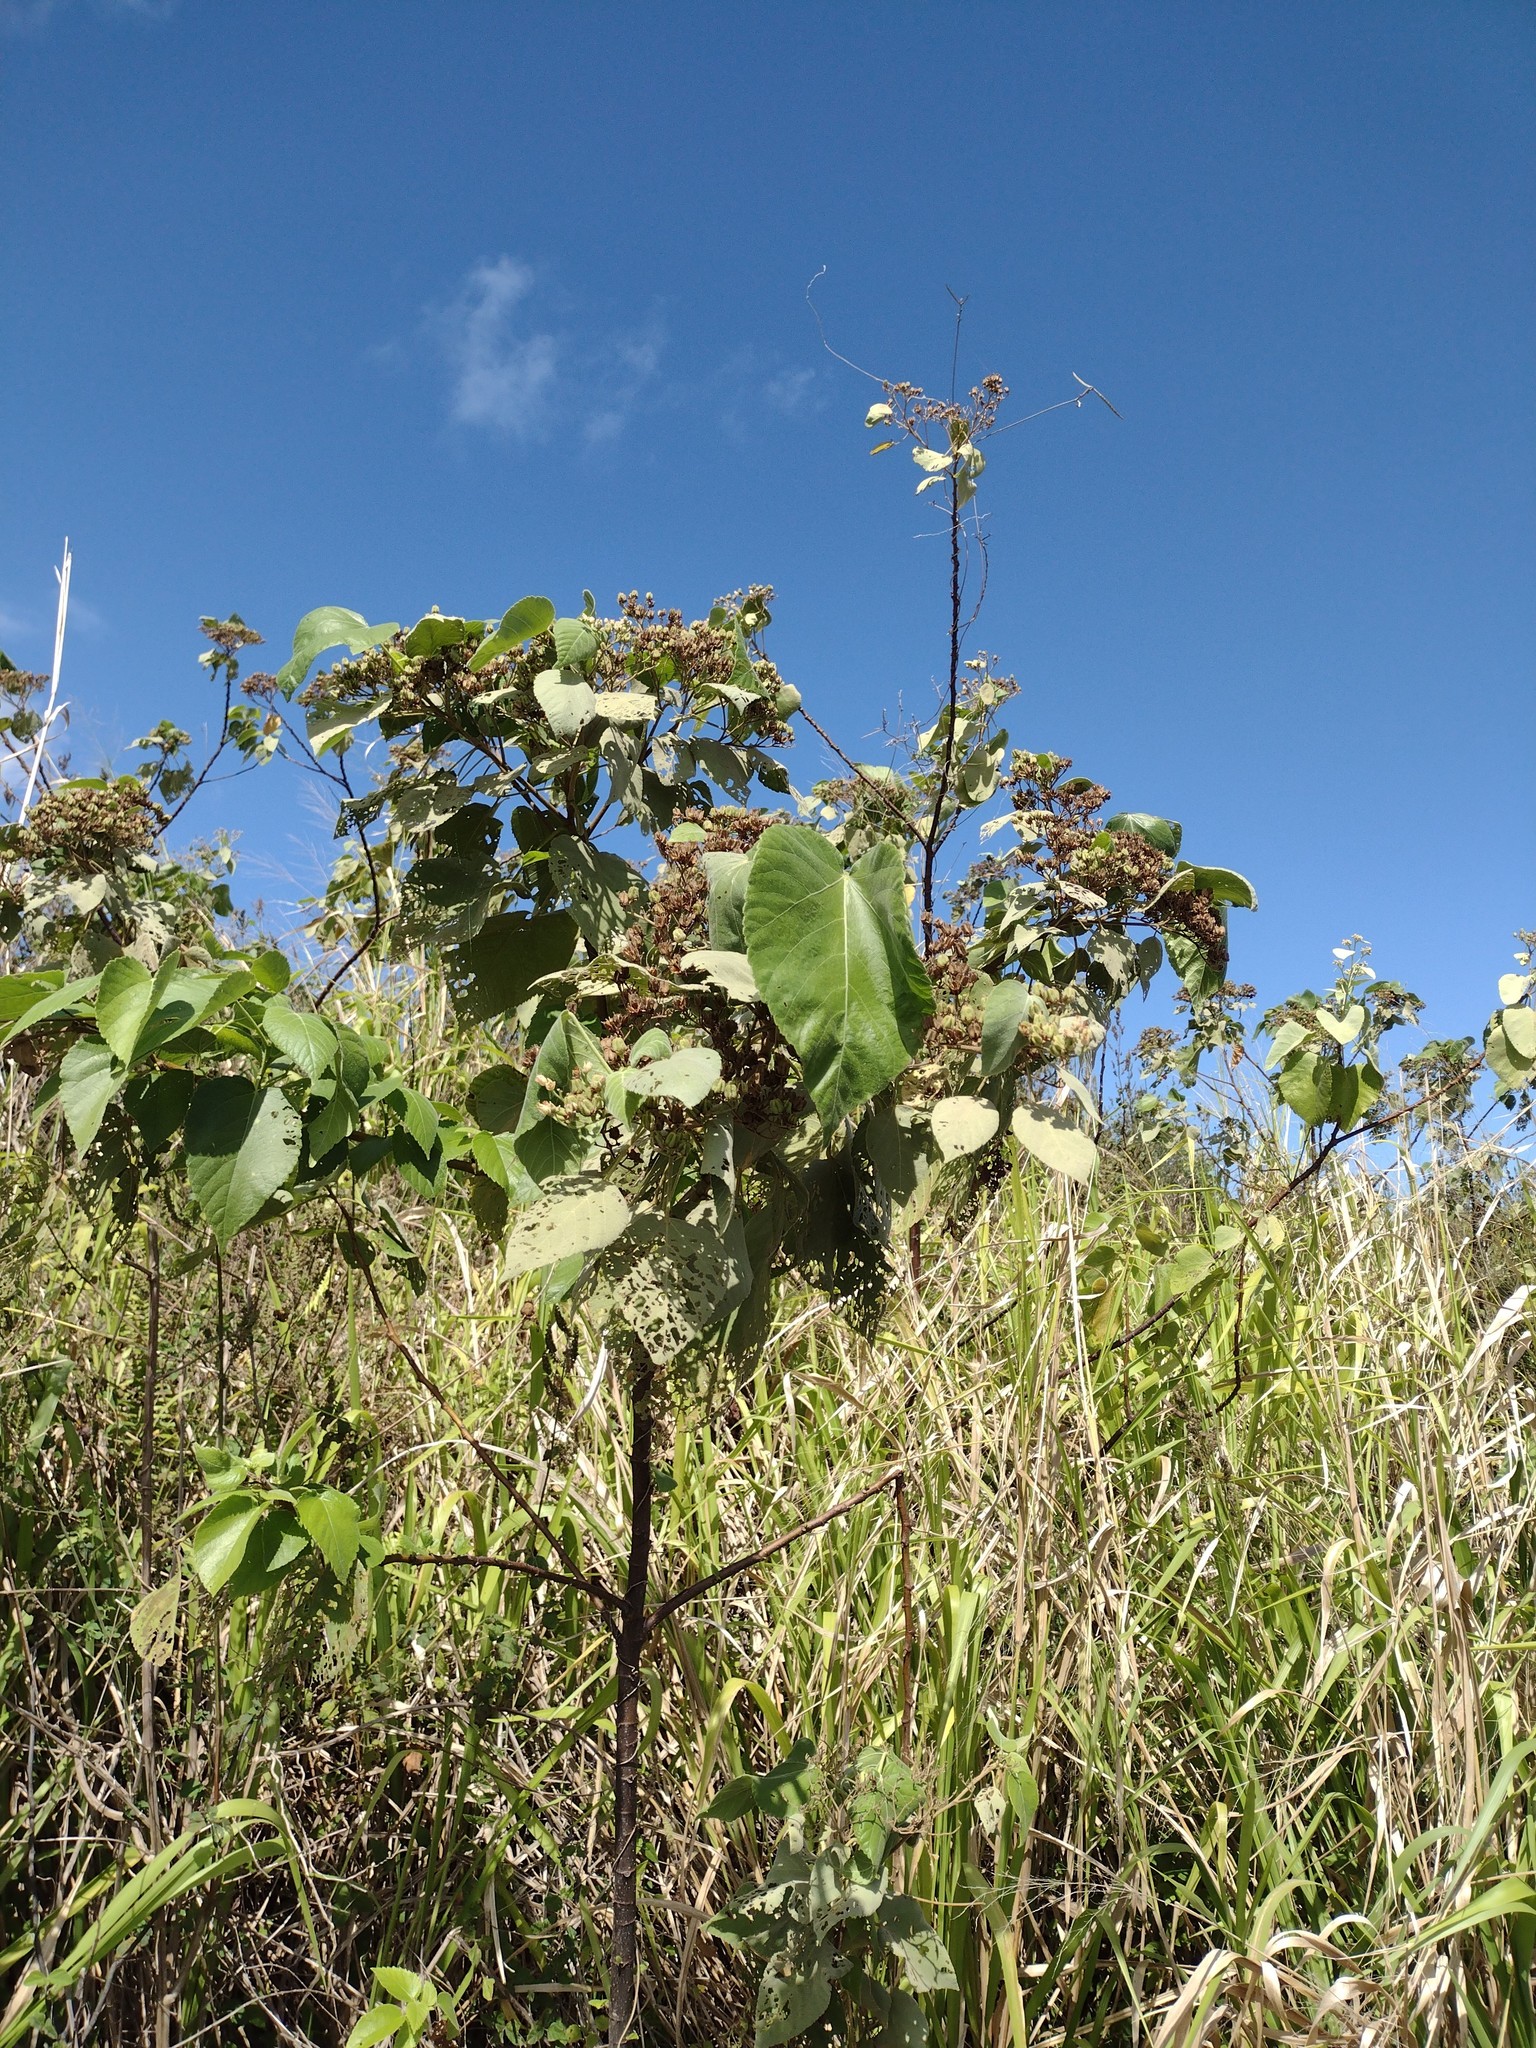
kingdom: Plantae
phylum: Tracheophyta
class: Magnoliopsida
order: Malvales
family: Malvaceae
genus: Melochia
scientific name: Melochia umbellata
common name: Gunpowder tree
